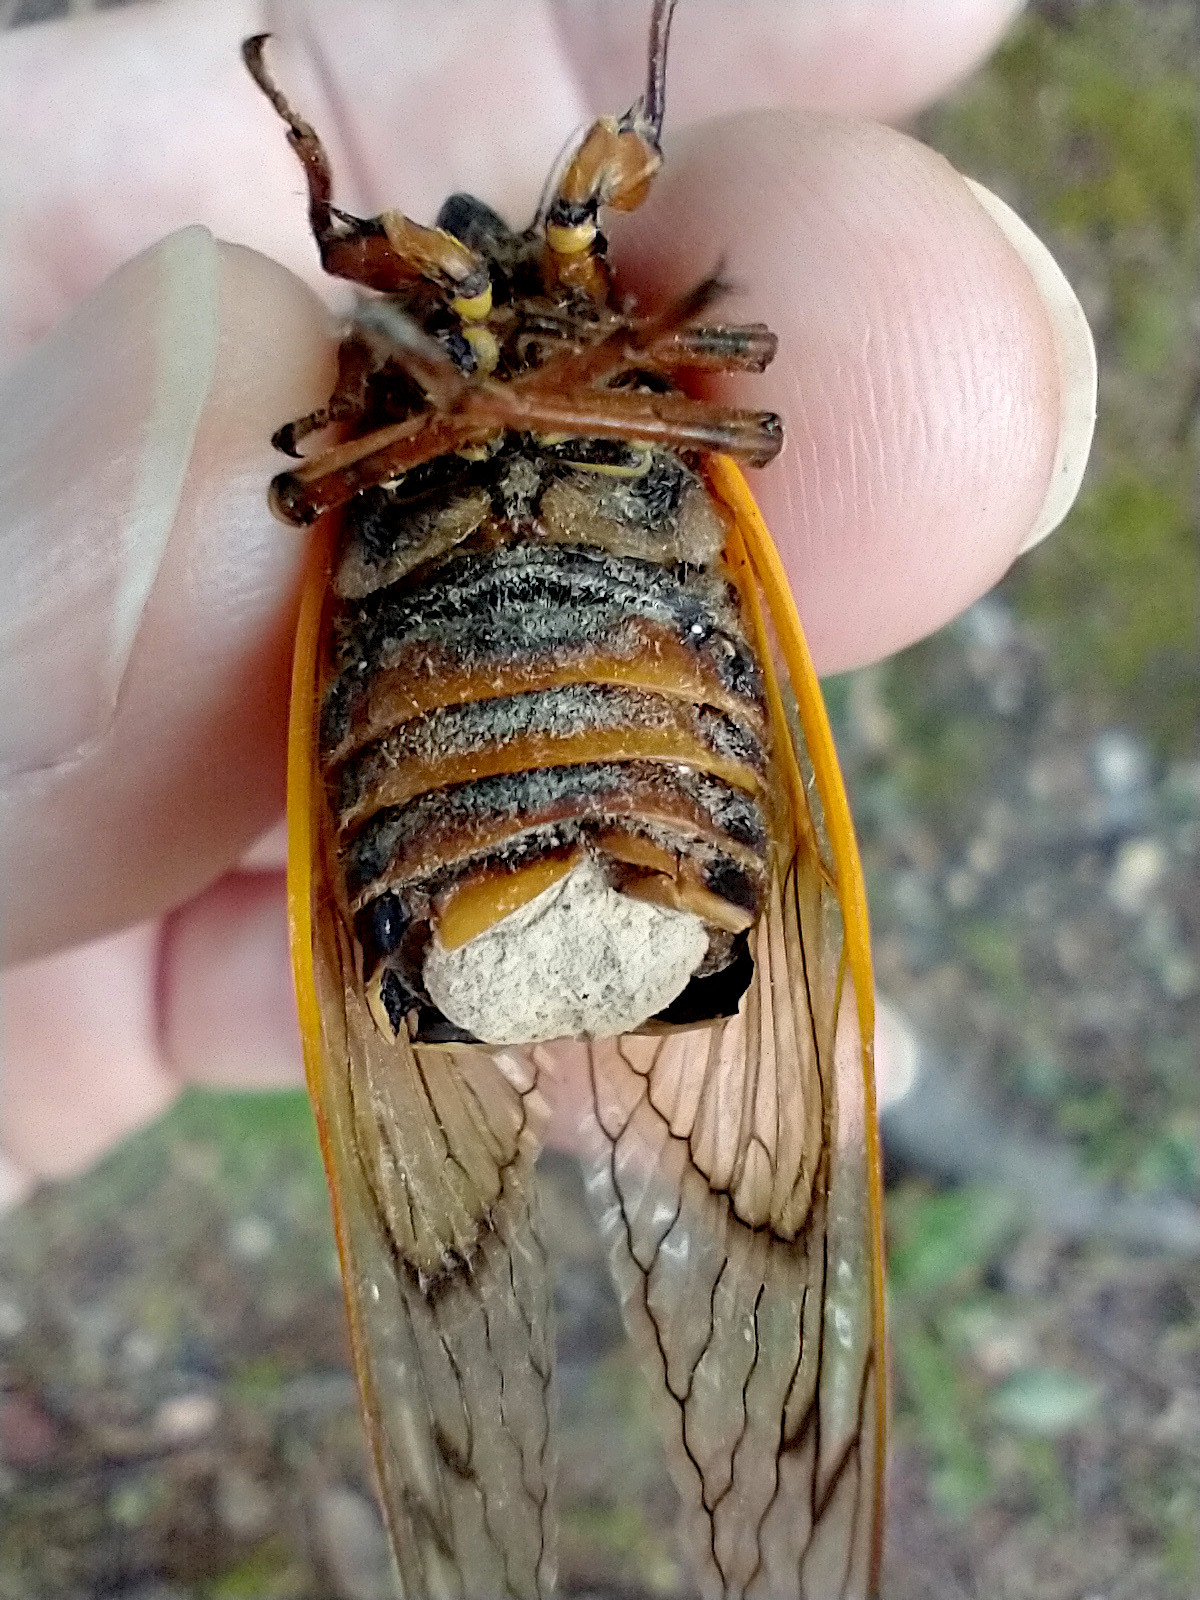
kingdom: Animalia
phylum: Arthropoda
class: Insecta
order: Hemiptera
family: Cicadidae
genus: Magicicada
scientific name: Magicicada septendecim
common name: Periodical cicada
